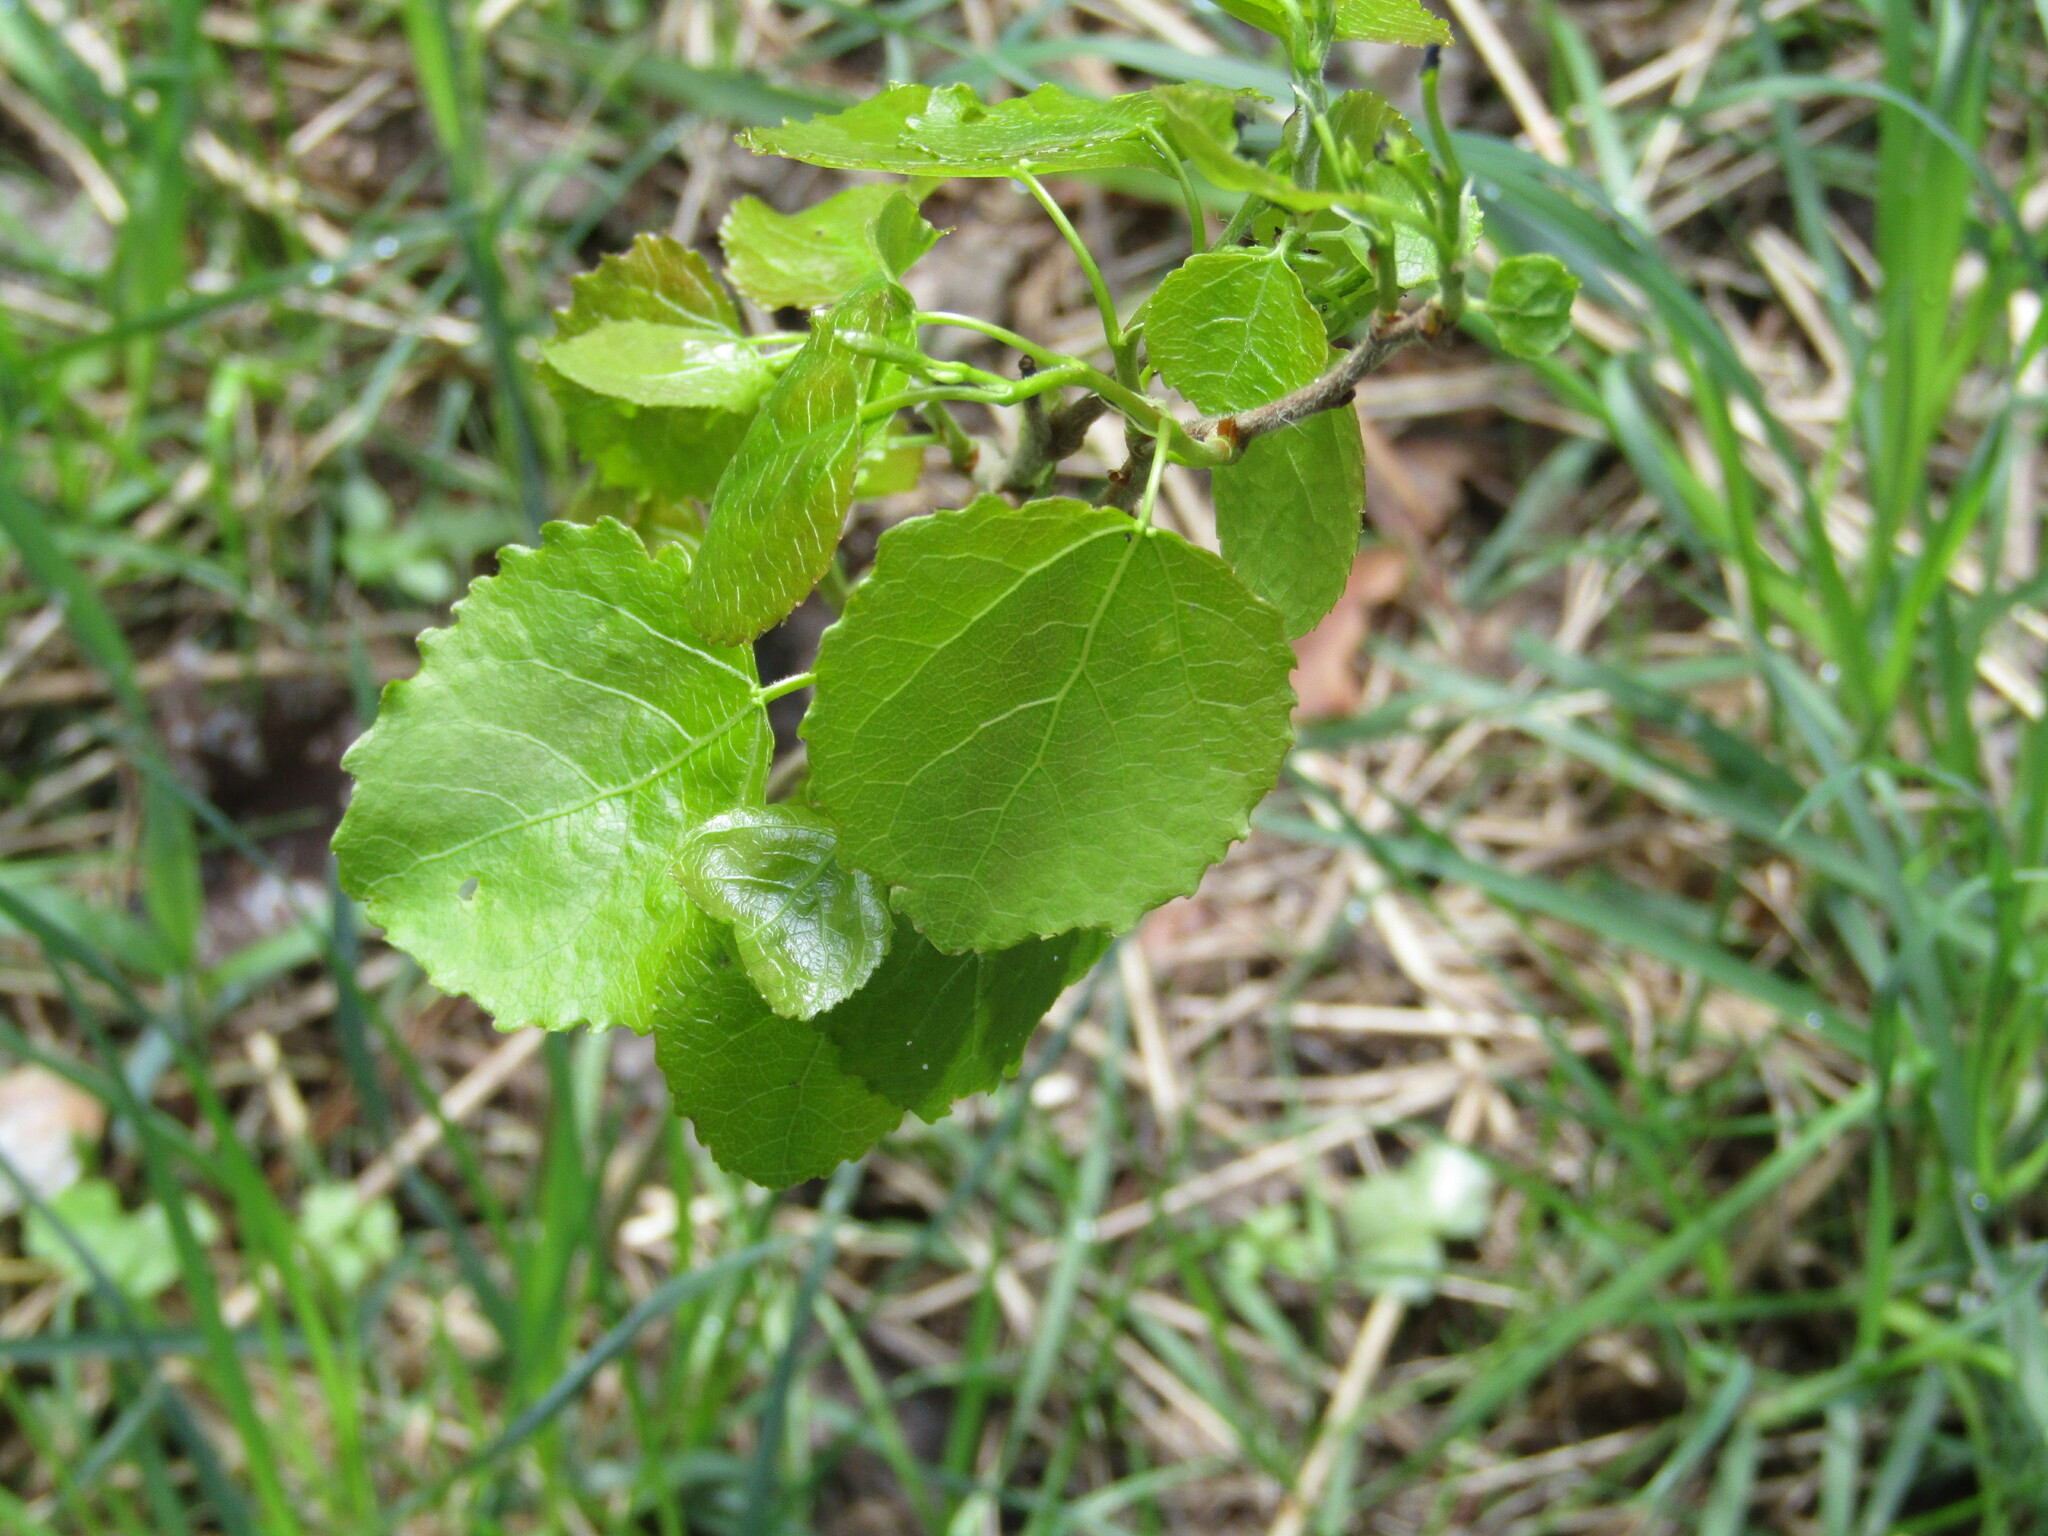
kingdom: Plantae
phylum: Tracheophyta
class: Magnoliopsida
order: Malpighiales
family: Salicaceae
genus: Populus
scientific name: Populus tremula
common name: European aspen
